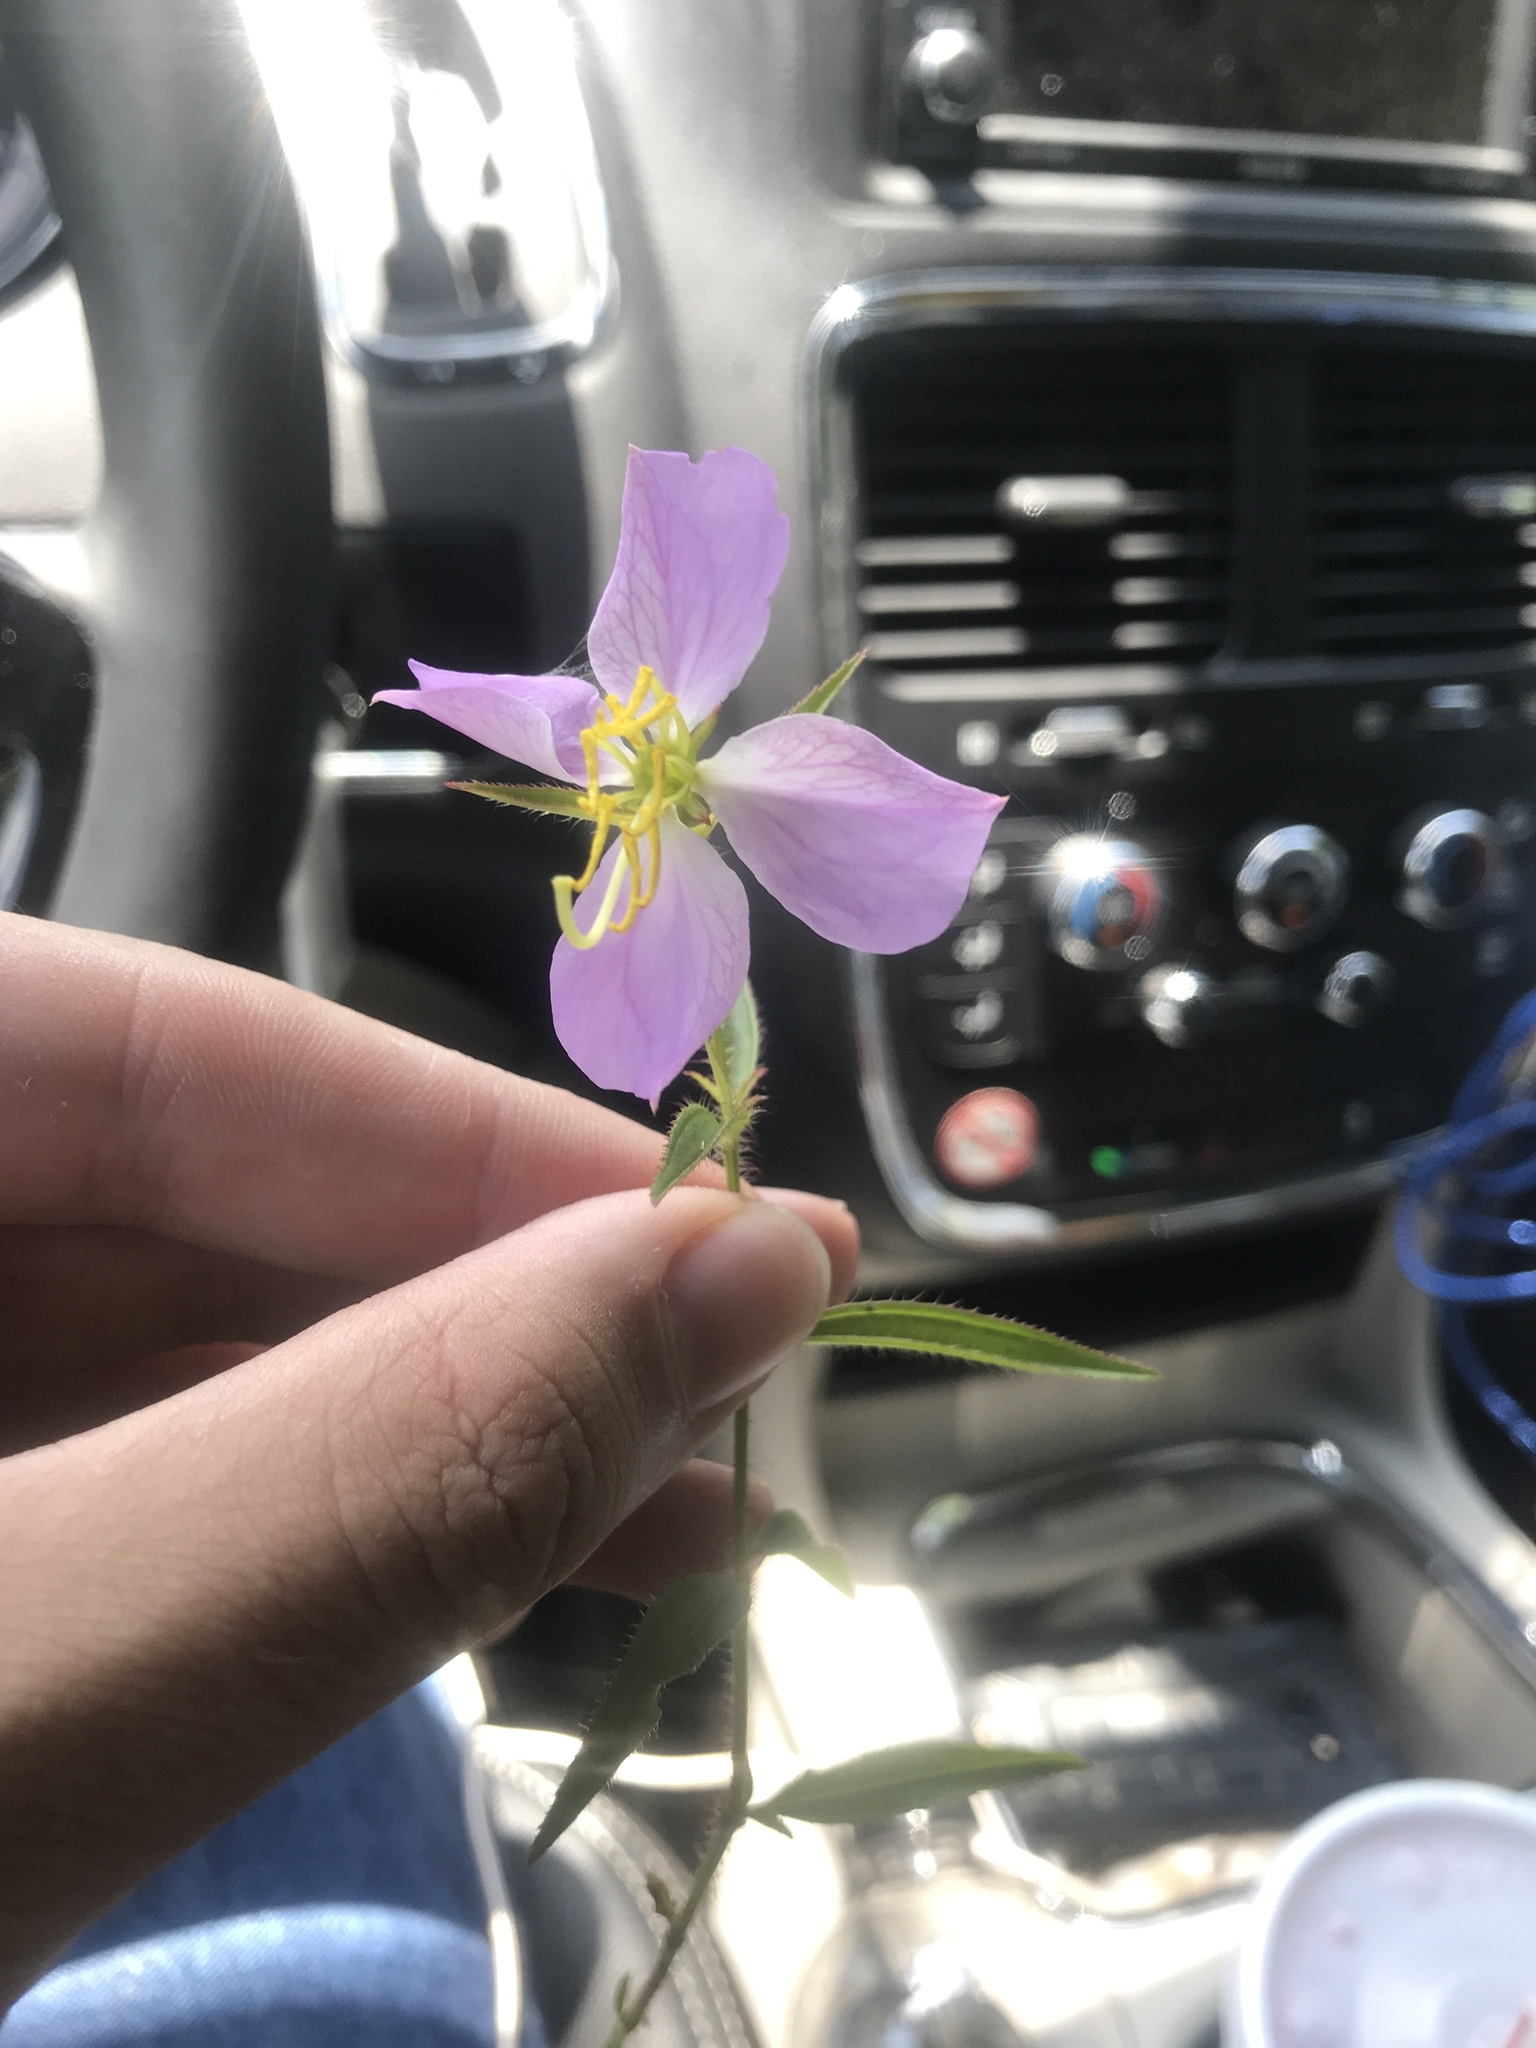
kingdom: Plantae
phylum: Tracheophyta
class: Magnoliopsida
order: Myrtales
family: Melastomataceae
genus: Rhexia
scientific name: Rhexia mariana
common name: Dull meadow-pitcher
